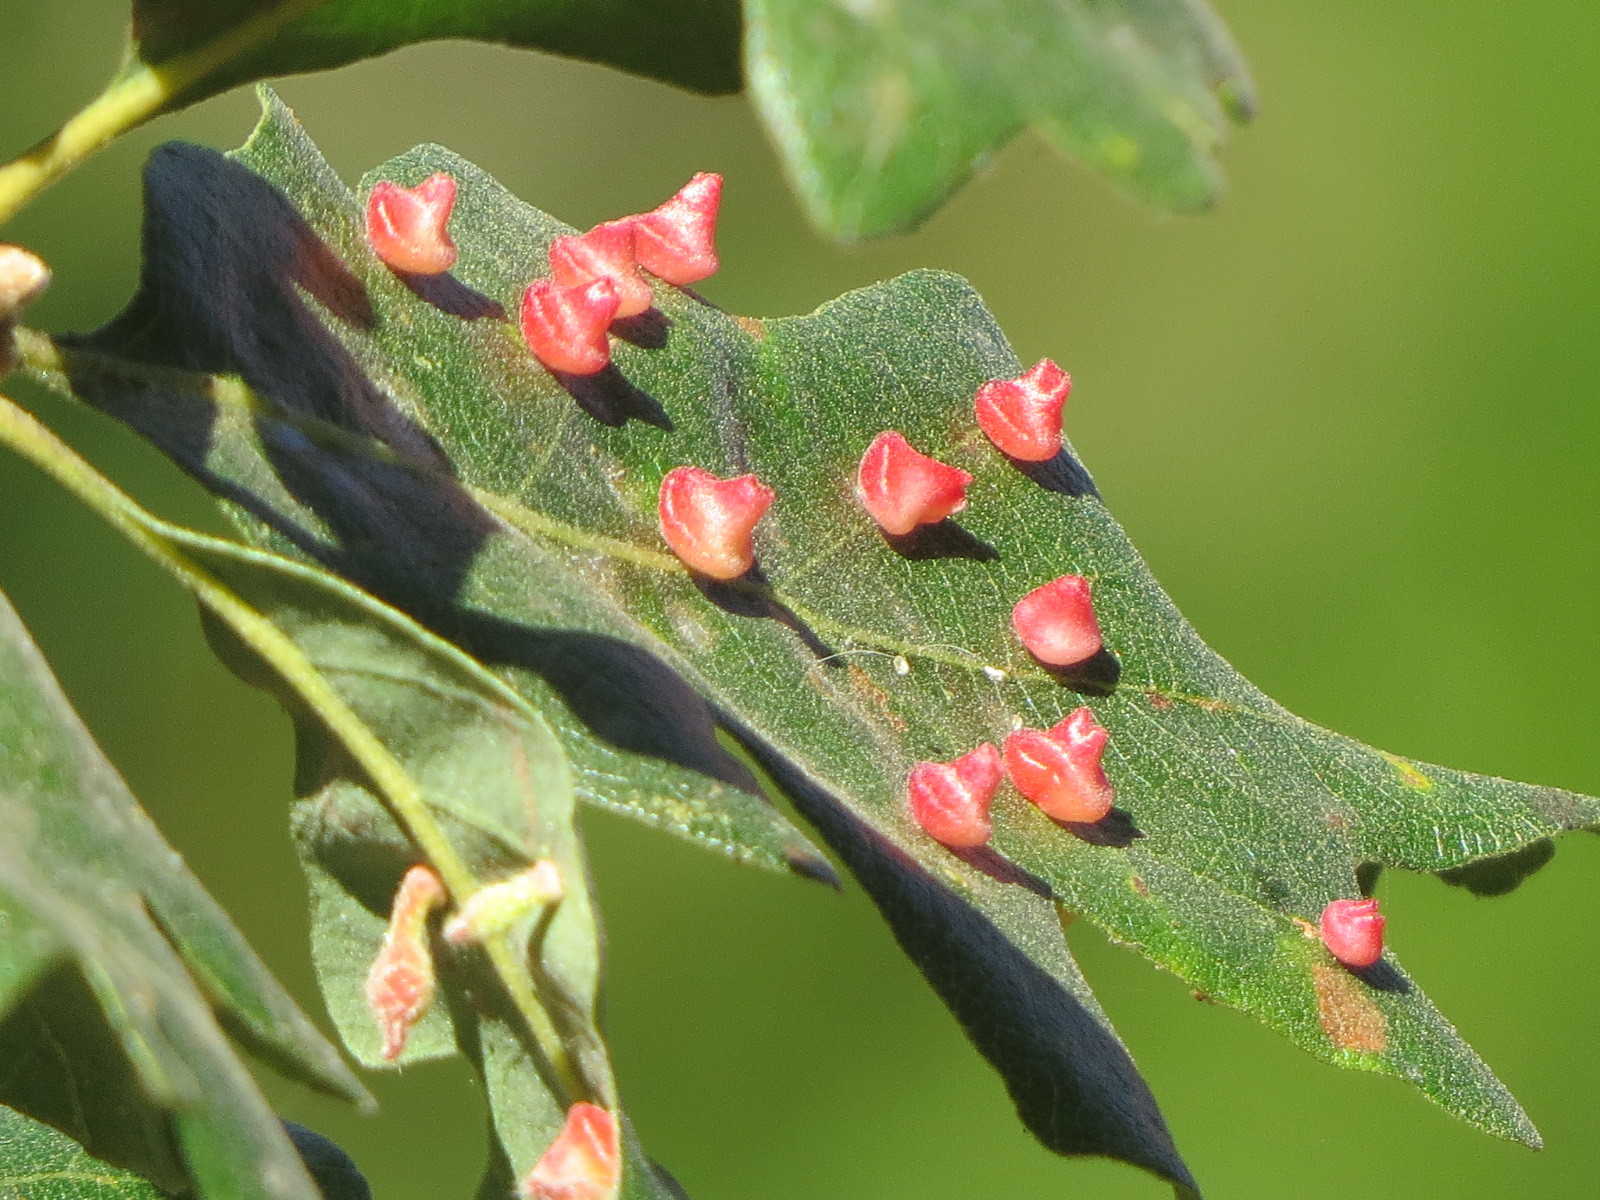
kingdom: Animalia
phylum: Arthropoda
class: Insecta
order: Hymenoptera
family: Cynipidae
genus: Atrusca
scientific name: Atrusca
